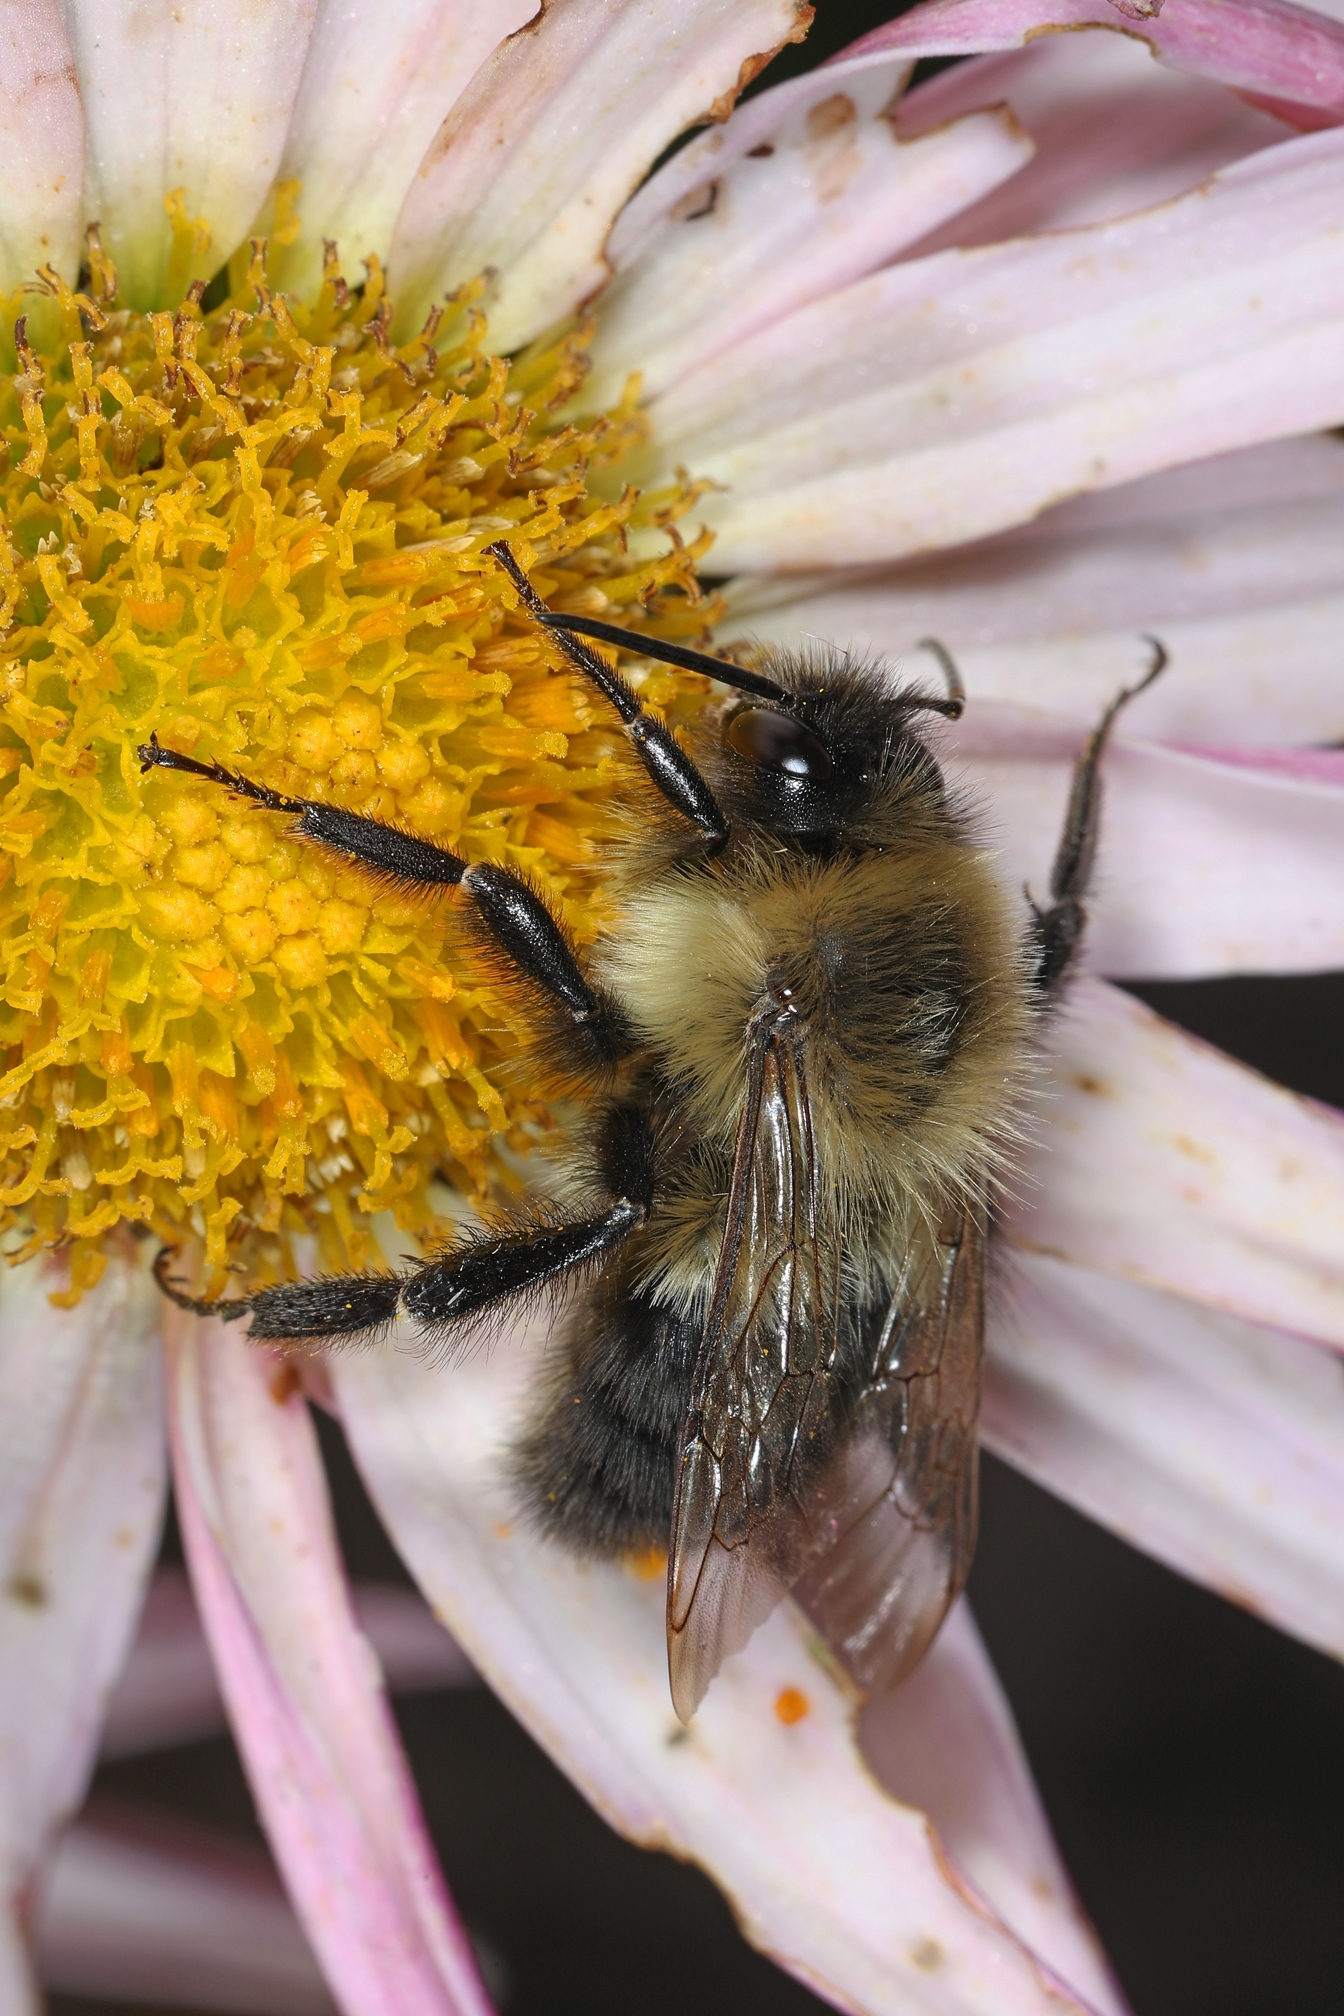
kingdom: Animalia
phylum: Arthropoda
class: Insecta
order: Hymenoptera
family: Apidae
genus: Bombus
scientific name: Bombus impatiens
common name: Common eastern bumble bee
